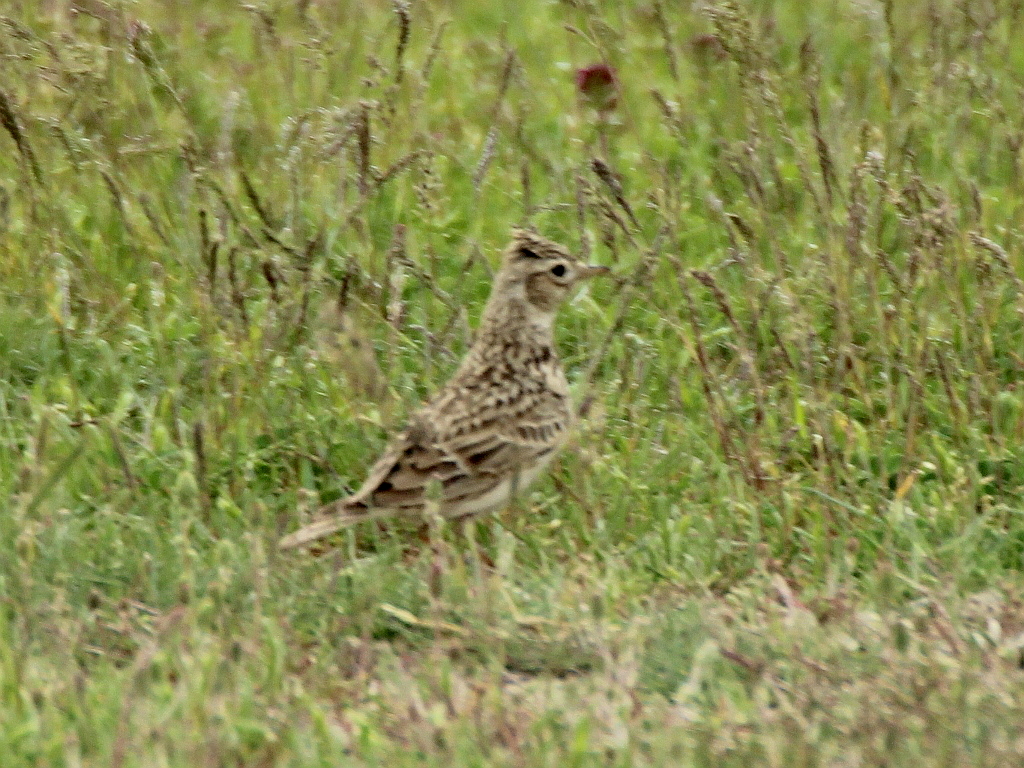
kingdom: Animalia
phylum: Chordata
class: Aves
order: Passeriformes
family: Alaudidae
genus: Alauda
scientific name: Alauda arvensis
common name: Eurasian skylark
